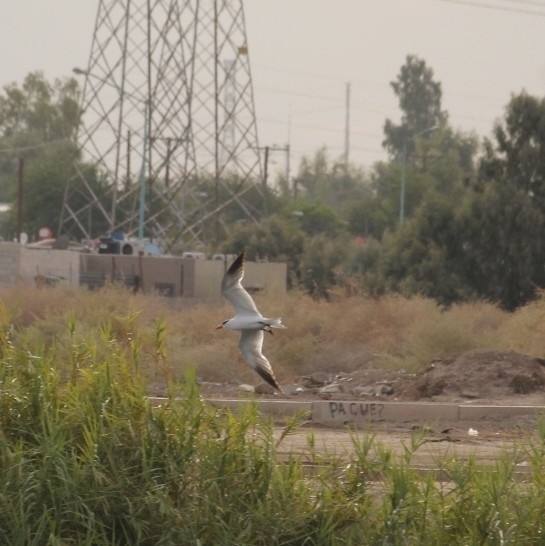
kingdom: Animalia
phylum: Chordata
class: Aves
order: Charadriiformes
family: Laridae
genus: Hydroprogne
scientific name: Hydroprogne caspia
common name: Caspian tern
